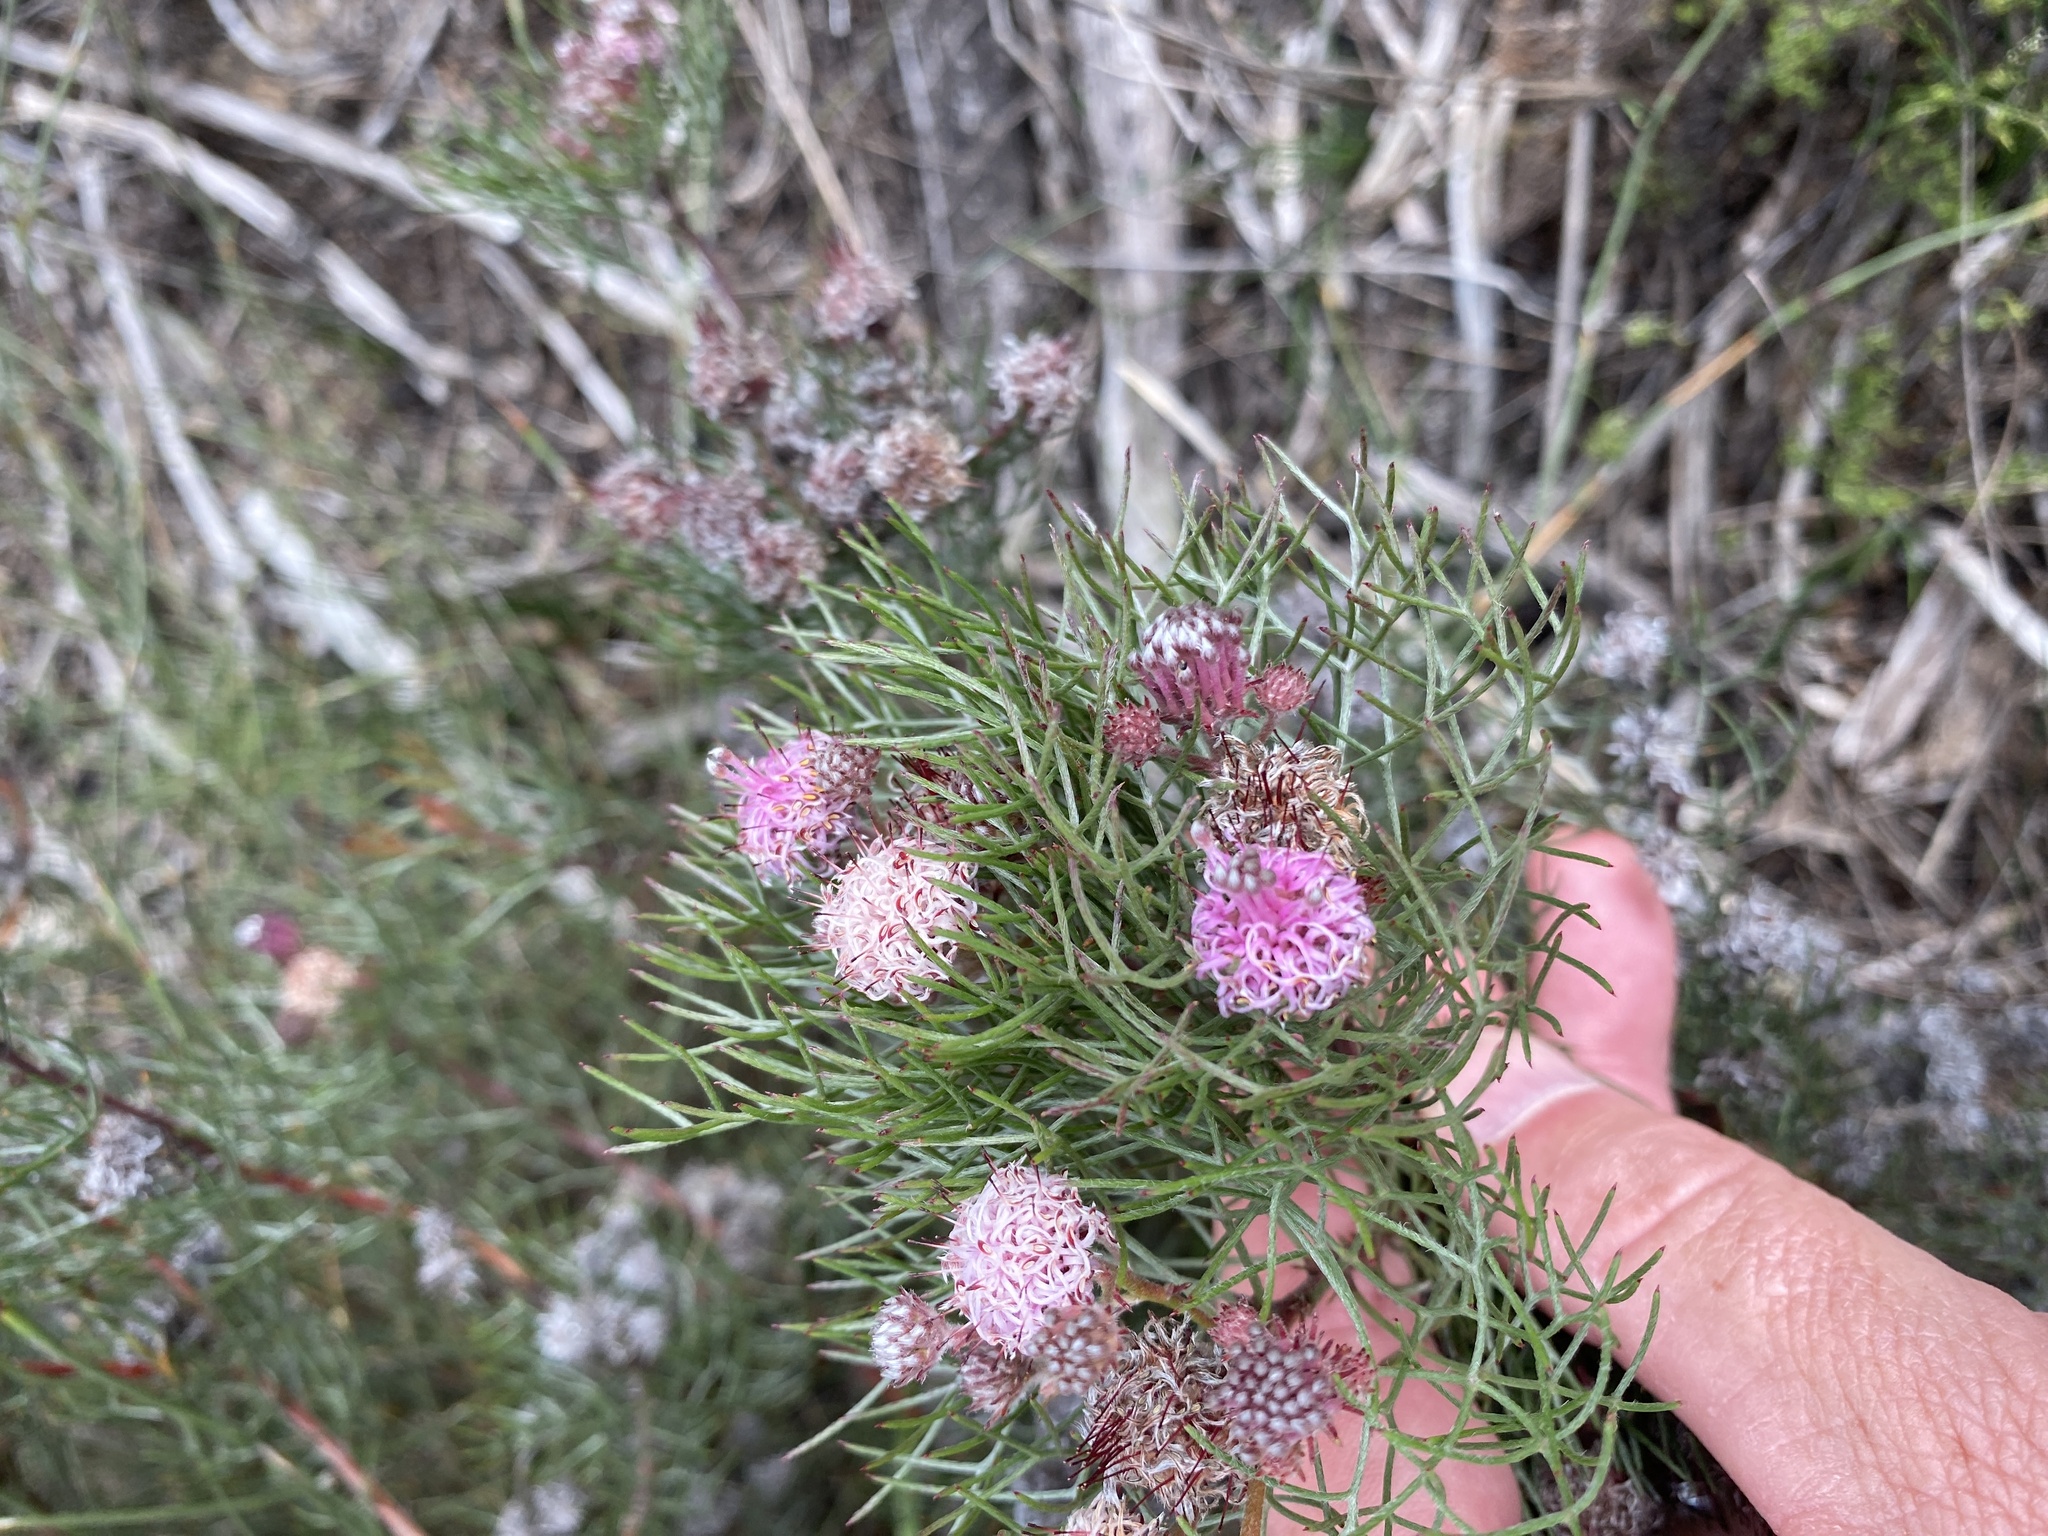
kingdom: Plantae
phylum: Tracheophyta
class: Magnoliopsida
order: Proteales
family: Proteaceae
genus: Serruria
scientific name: Serruria fasciflora
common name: Common pin spiderhead
